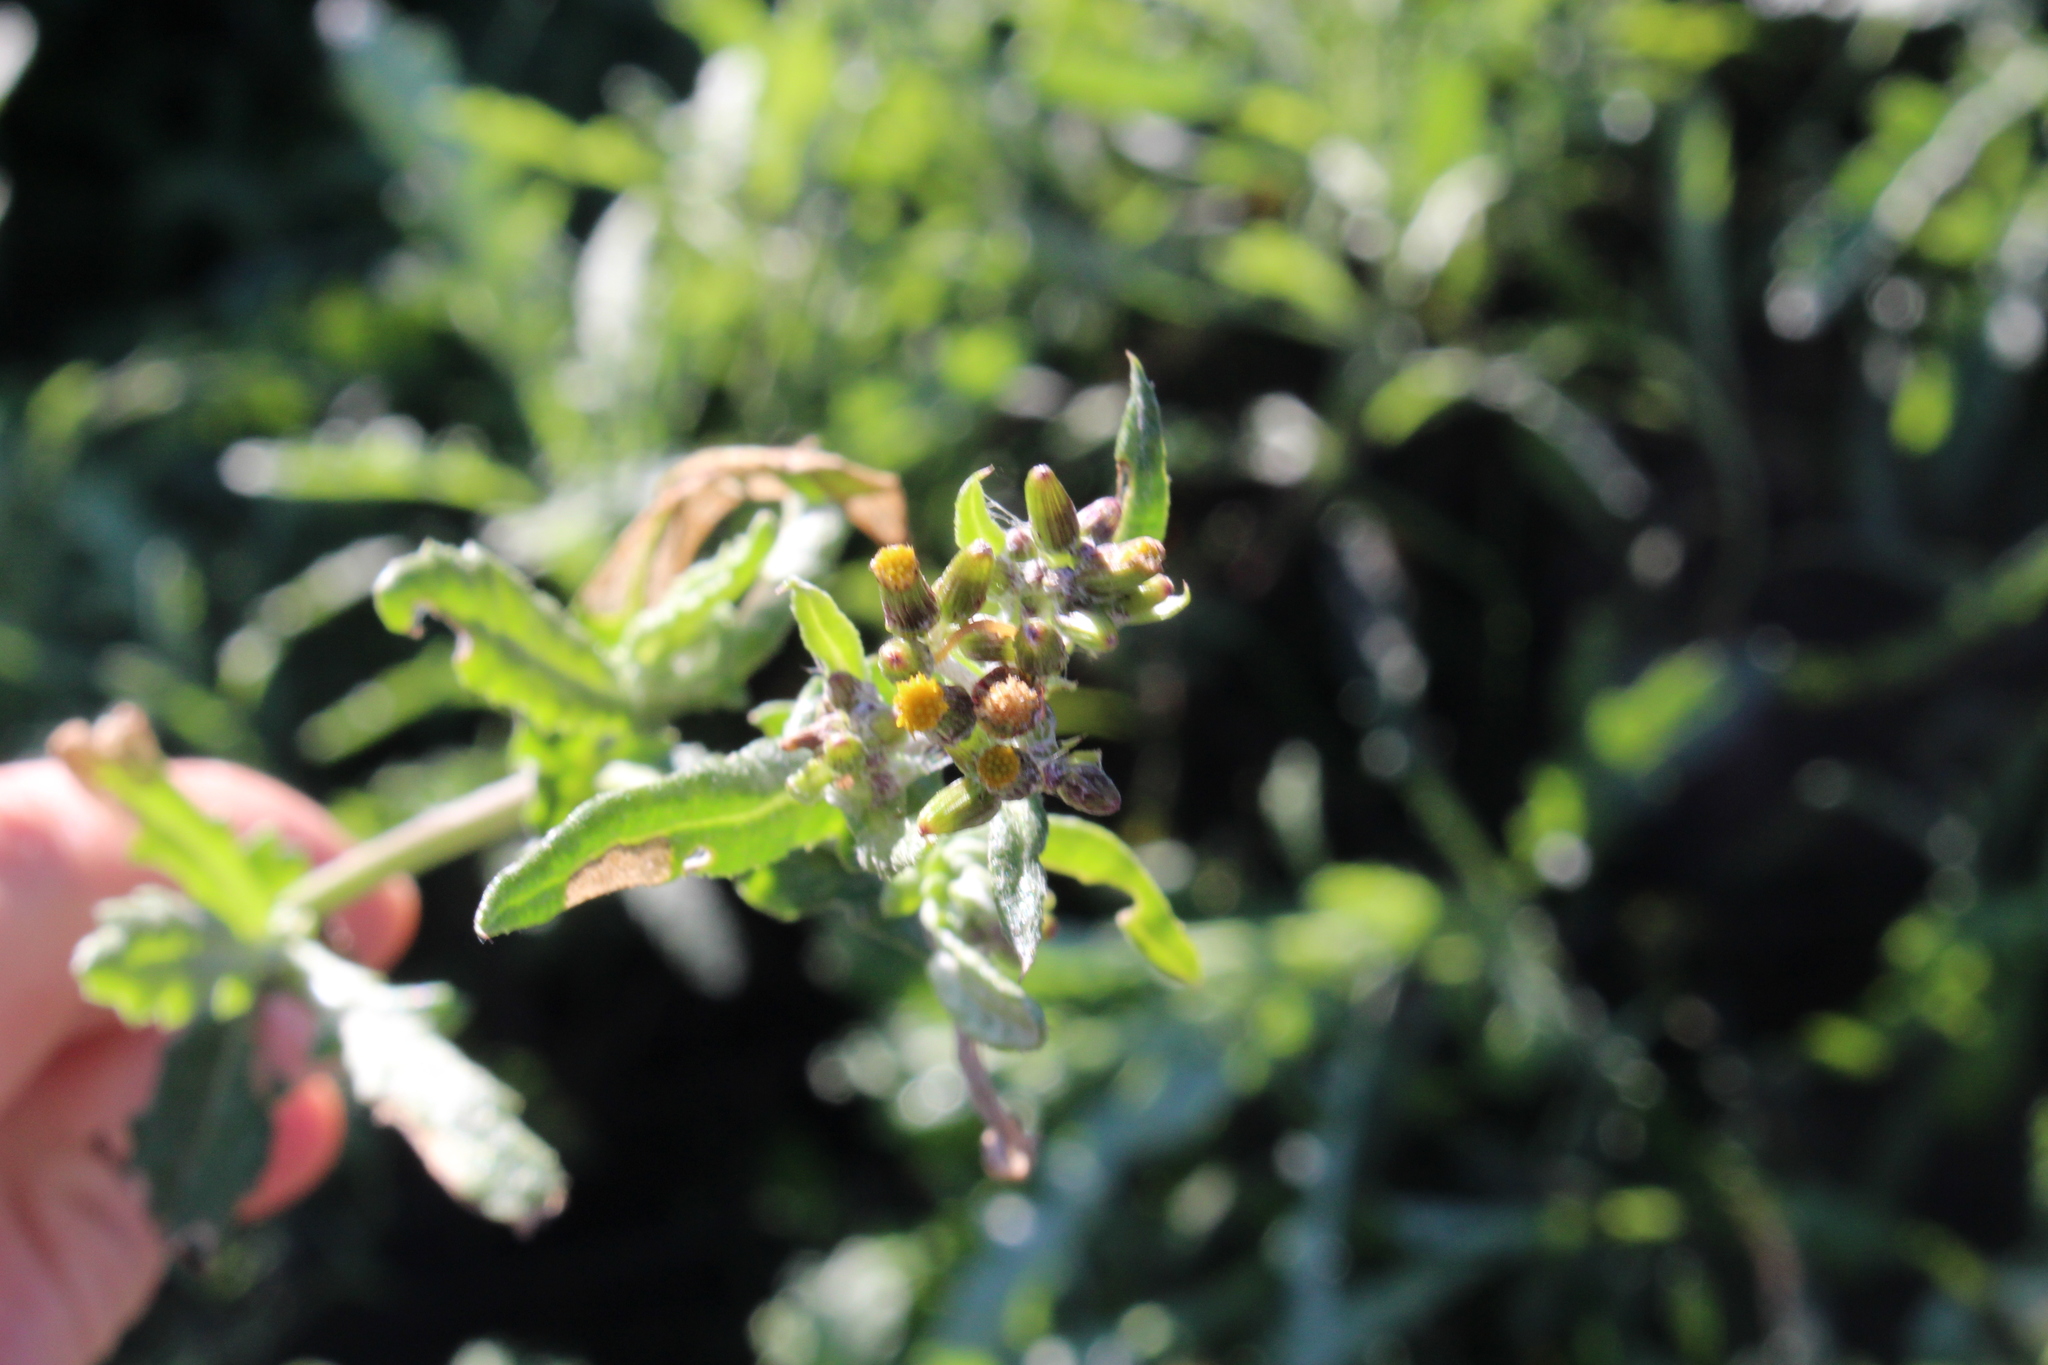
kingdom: Plantae
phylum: Tracheophyta
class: Magnoliopsida
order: Asterales
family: Asteraceae
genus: Senecio
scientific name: Senecio glomeratus
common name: Cutleaf burnweed
